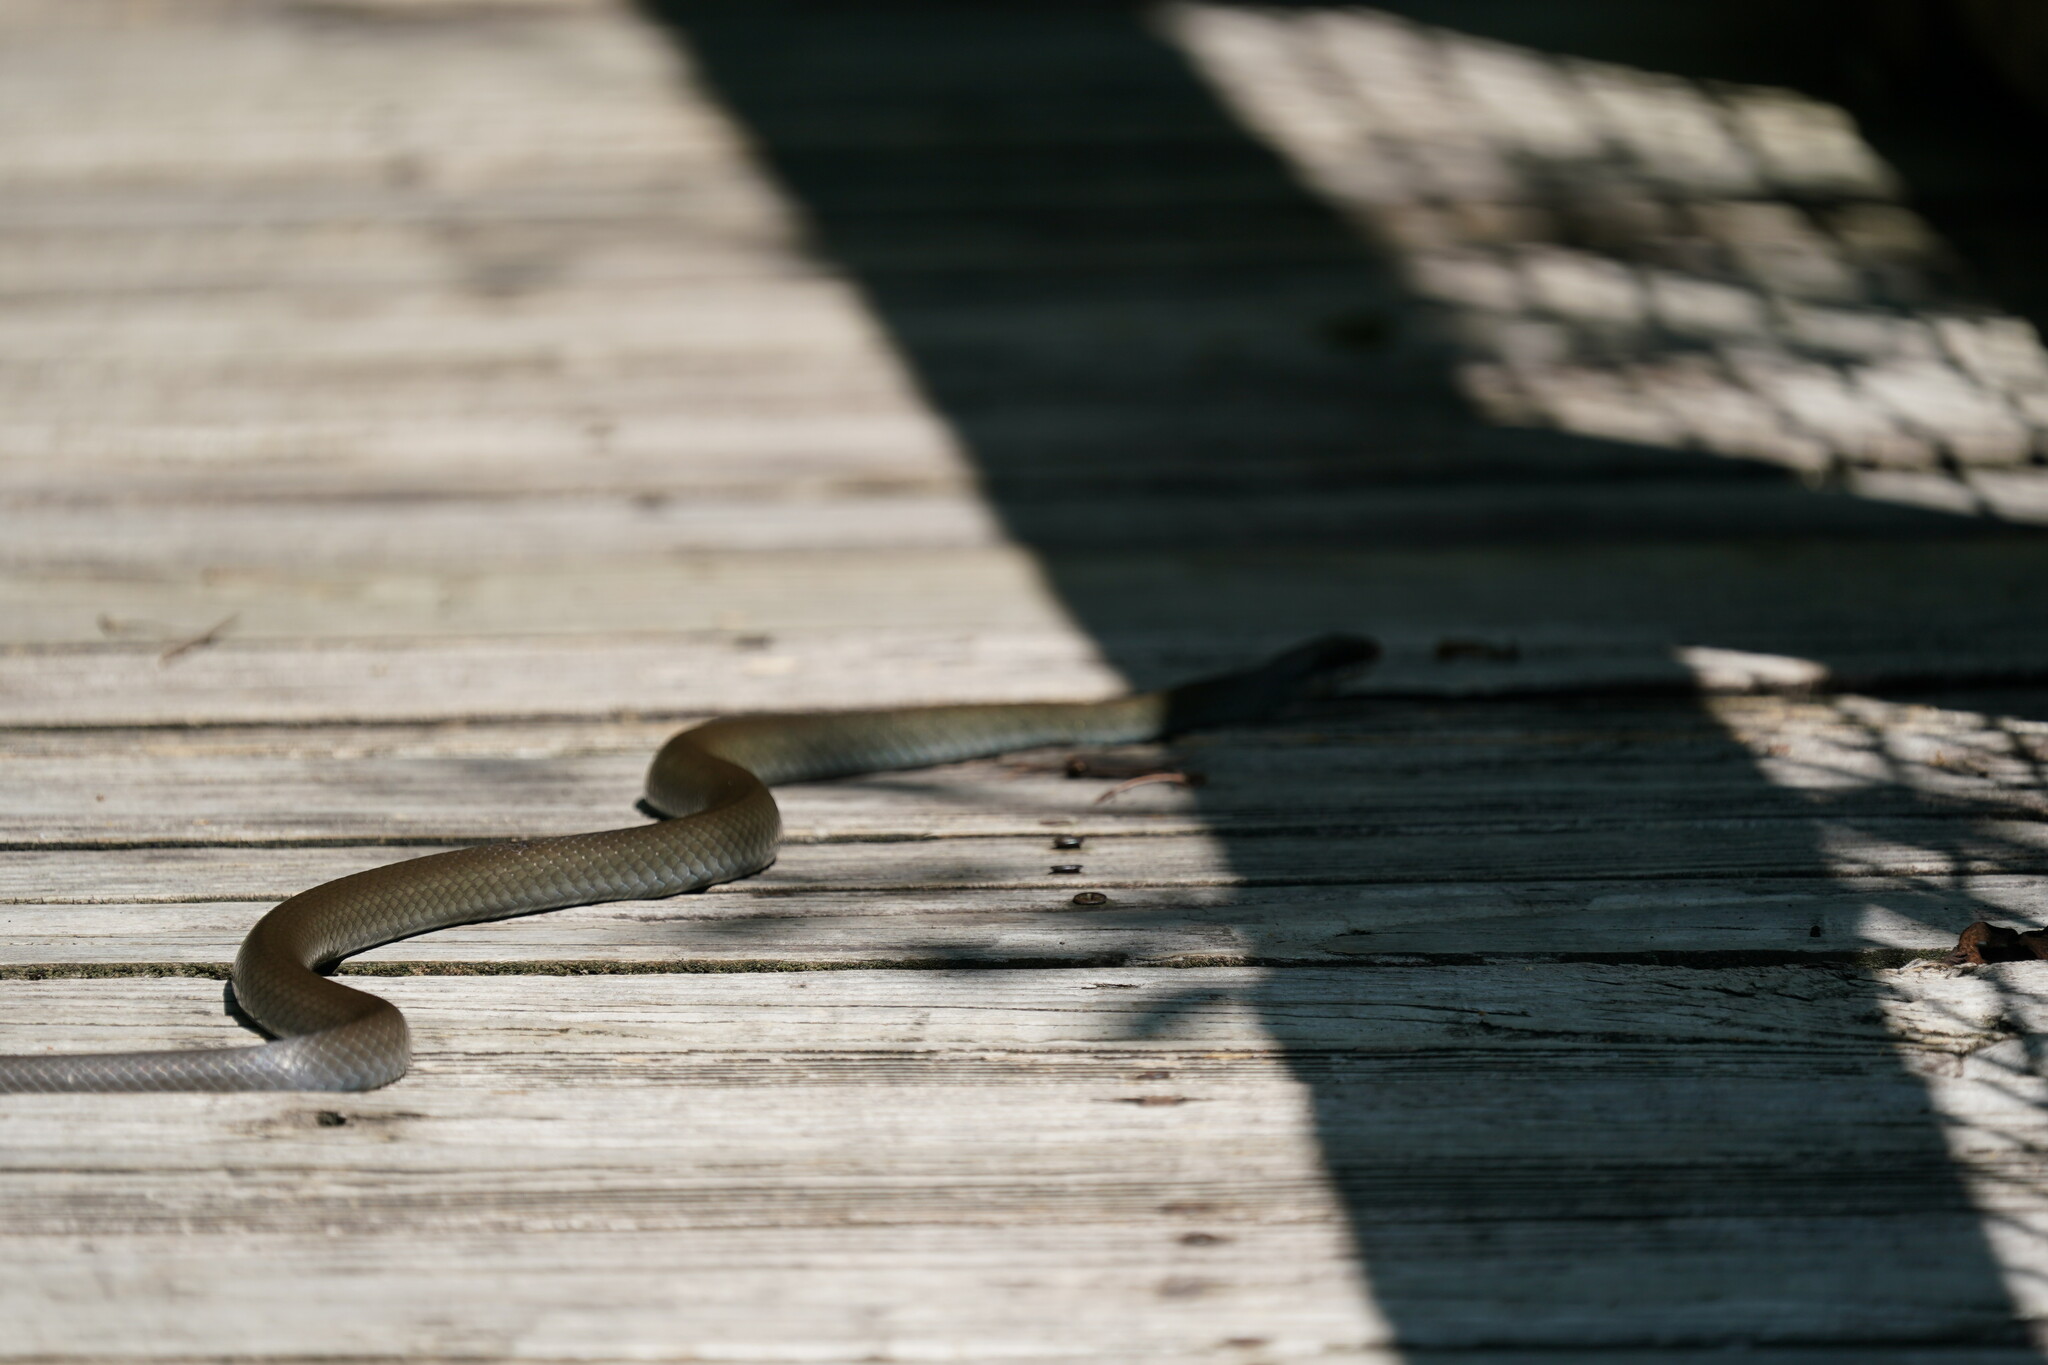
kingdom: Animalia
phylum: Chordata
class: Squamata
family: Colubridae
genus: Coluber
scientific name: Coluber constrictor
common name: Eastern racer
